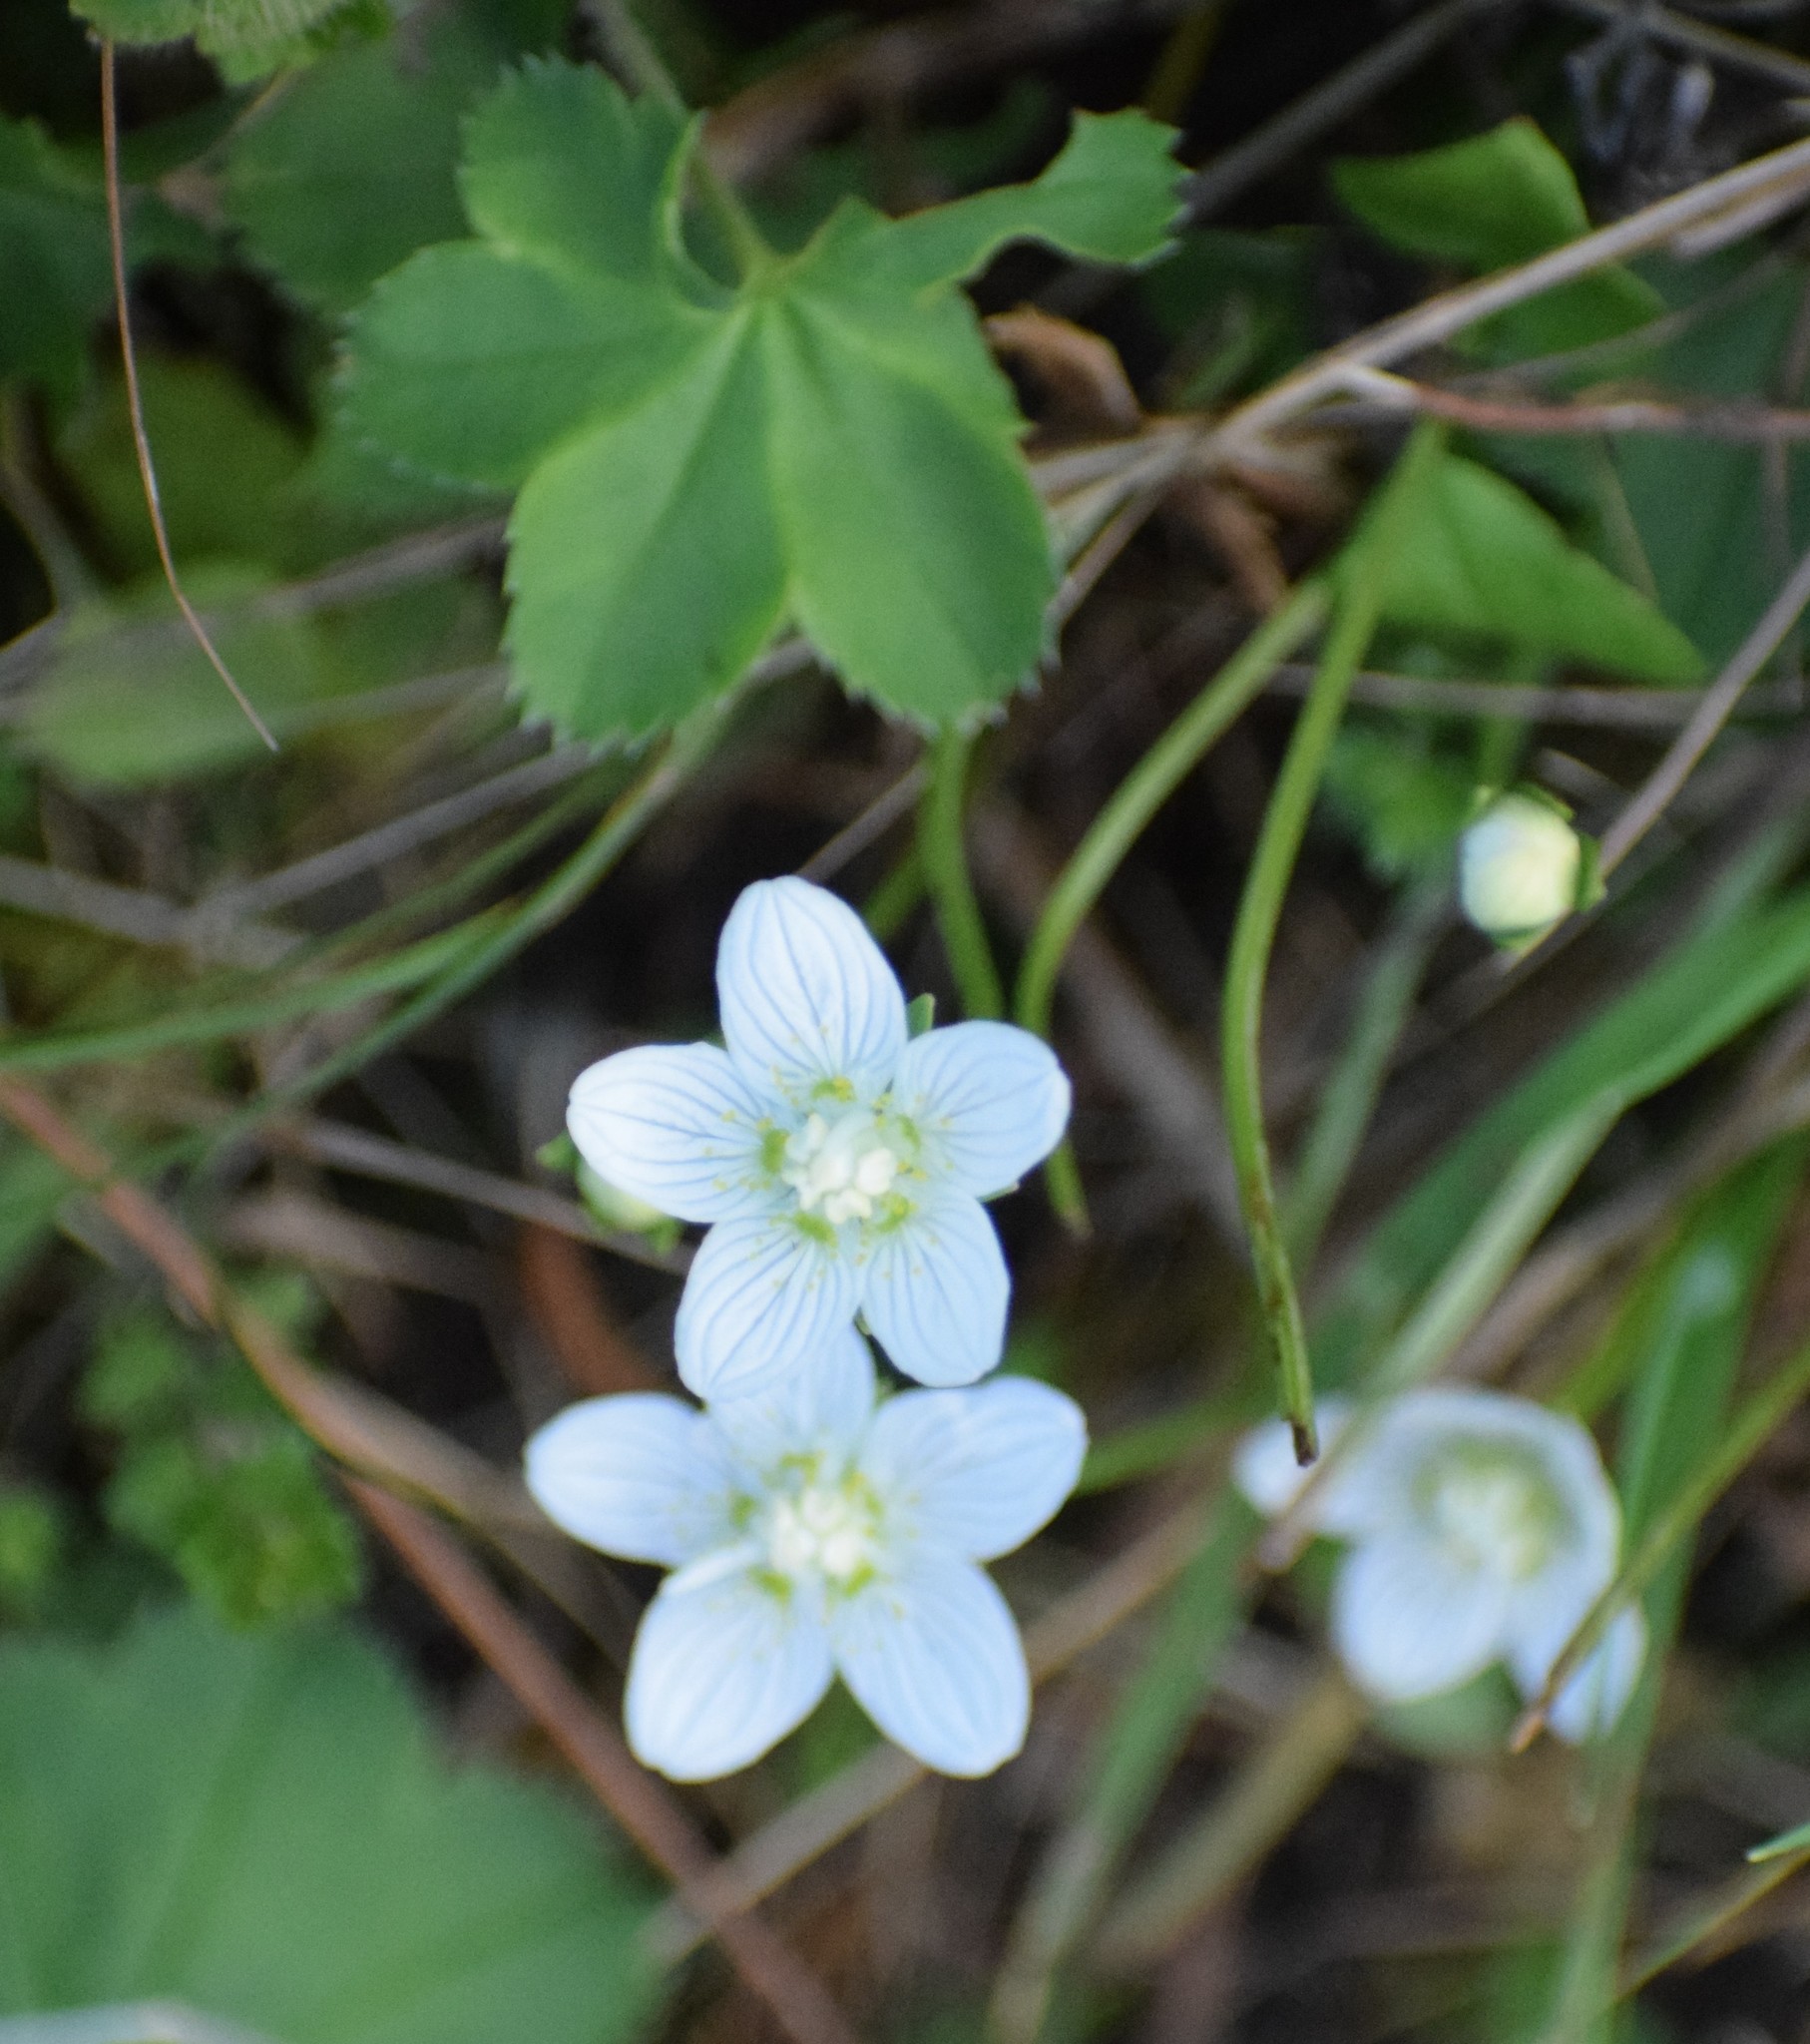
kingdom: Plantae
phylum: Tracheophyta
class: Magnoliopsida
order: Celastrales
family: Parnassiaceae
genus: Parnassia
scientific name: Parnassia palustris
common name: Grass-of-parnassus
